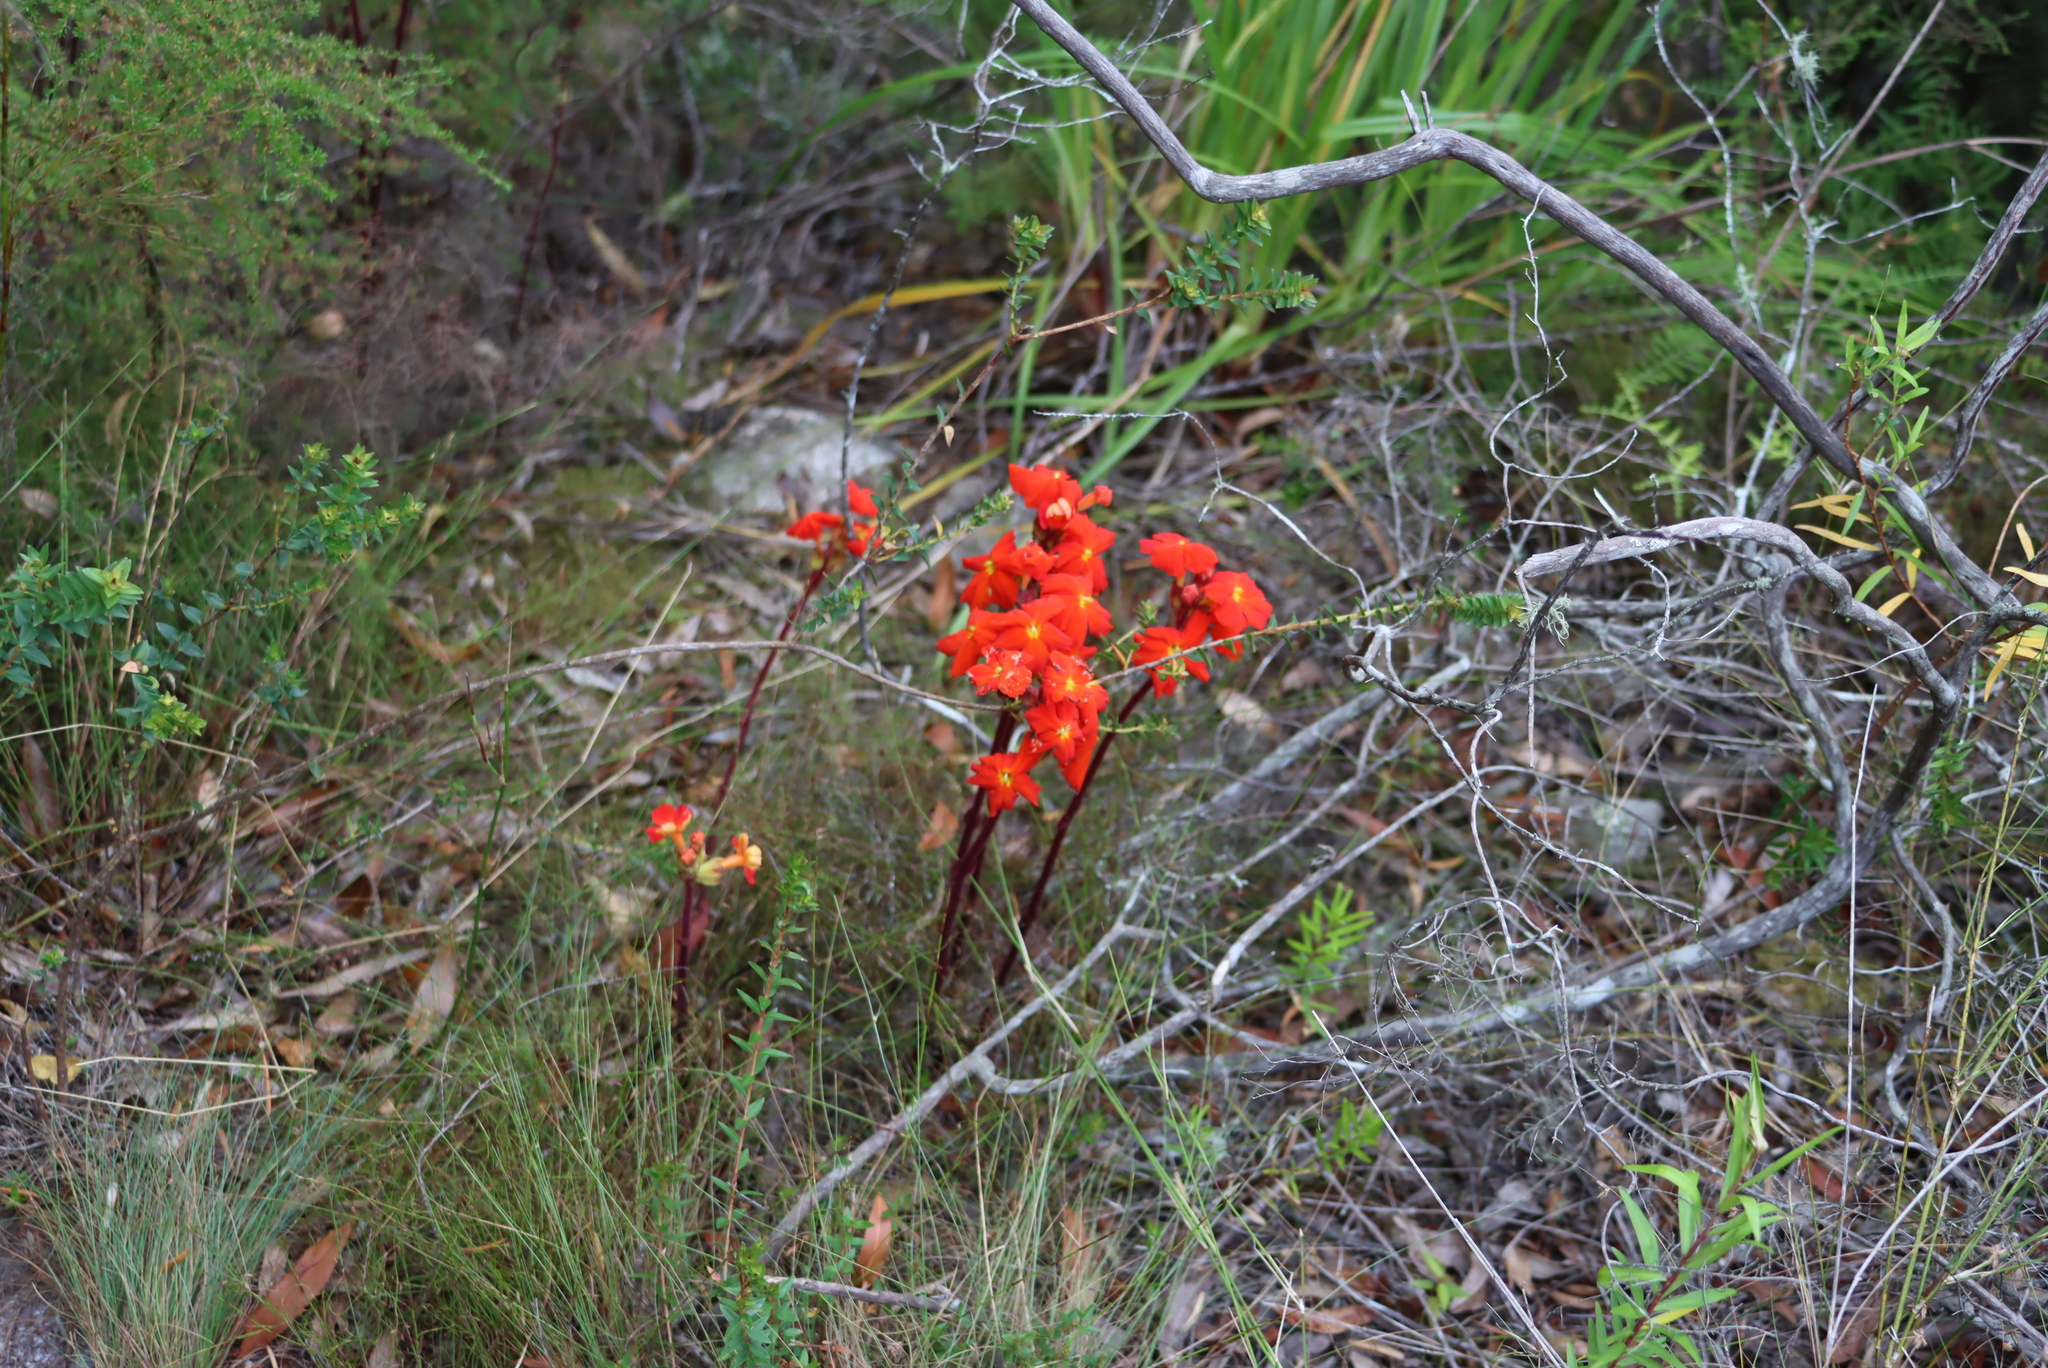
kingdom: Plantae
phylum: Tracheophyta
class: Magnoliopsida
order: Lamiales
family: Orobanchaceae
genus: Harveya
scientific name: Harveya stenosiphon
